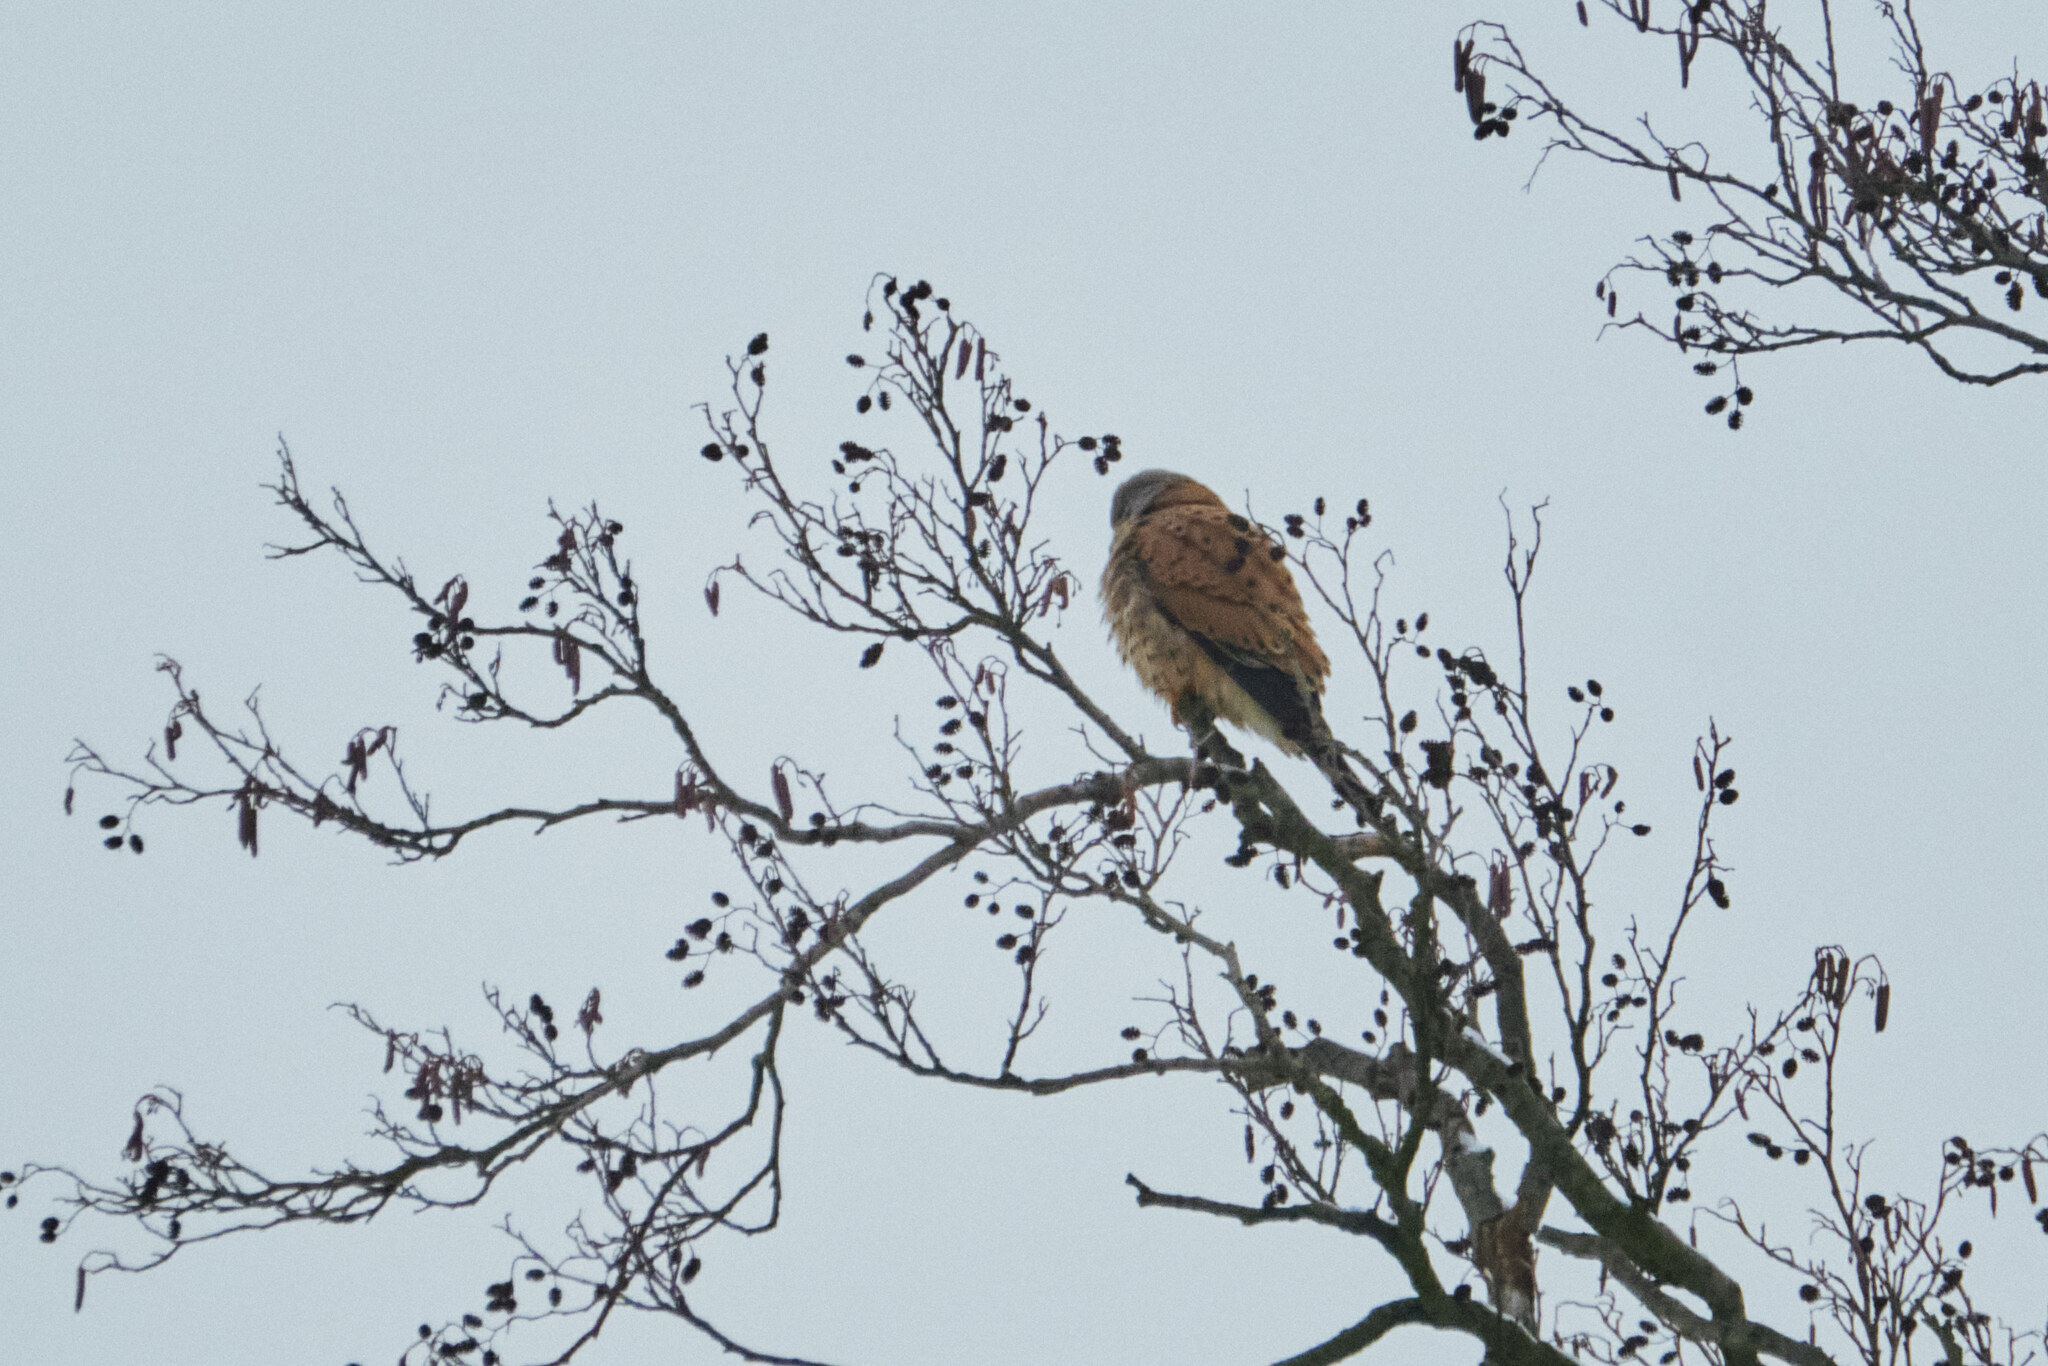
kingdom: Animalia
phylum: Chordata
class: Aves
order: Falconiformes
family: Falconidae
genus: Falco
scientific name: Falco tinnunculus
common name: Common kestrel
